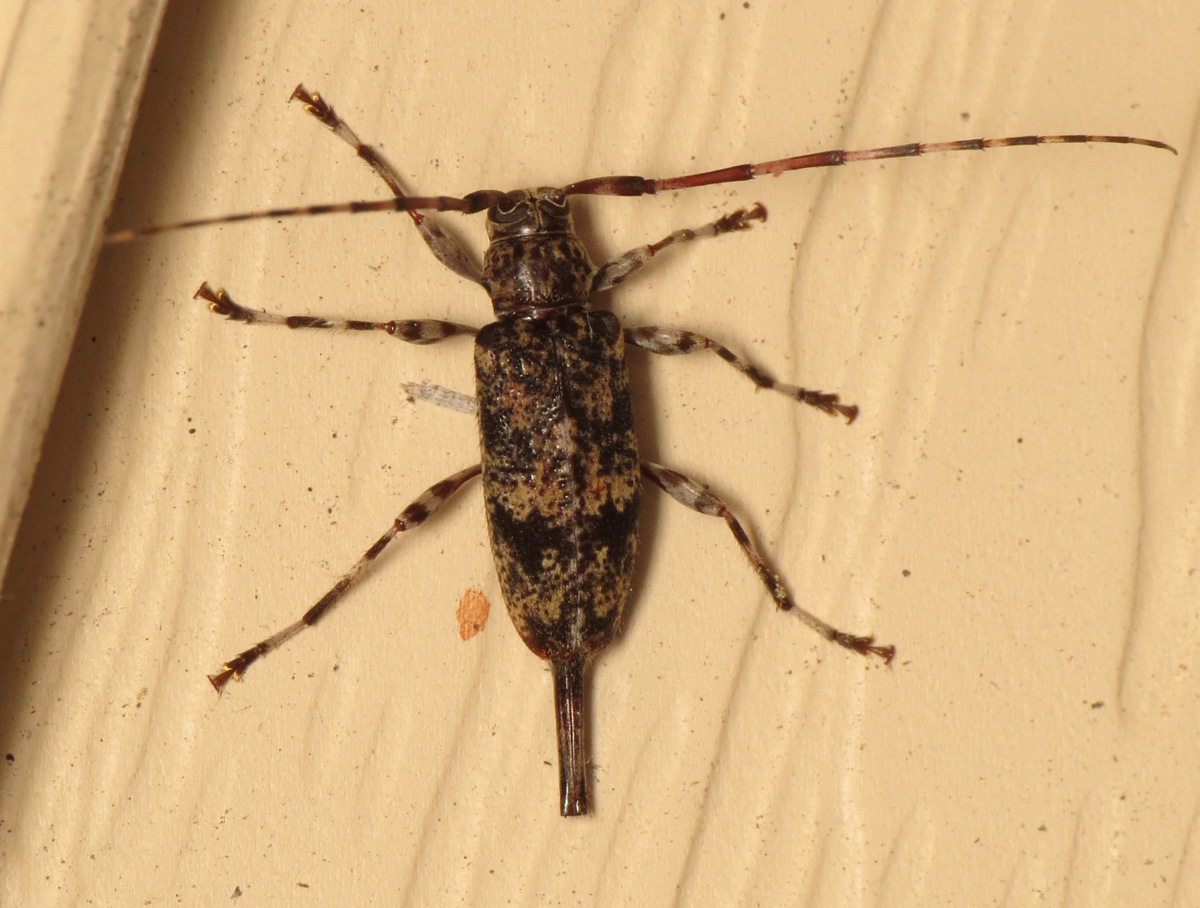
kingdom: Animalia
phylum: Arthropoda
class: Insecta
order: Coleoptera
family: Cerambycidae
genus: Graphisurus
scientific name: Graphisurus fasciatus
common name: Banded graphisurus
